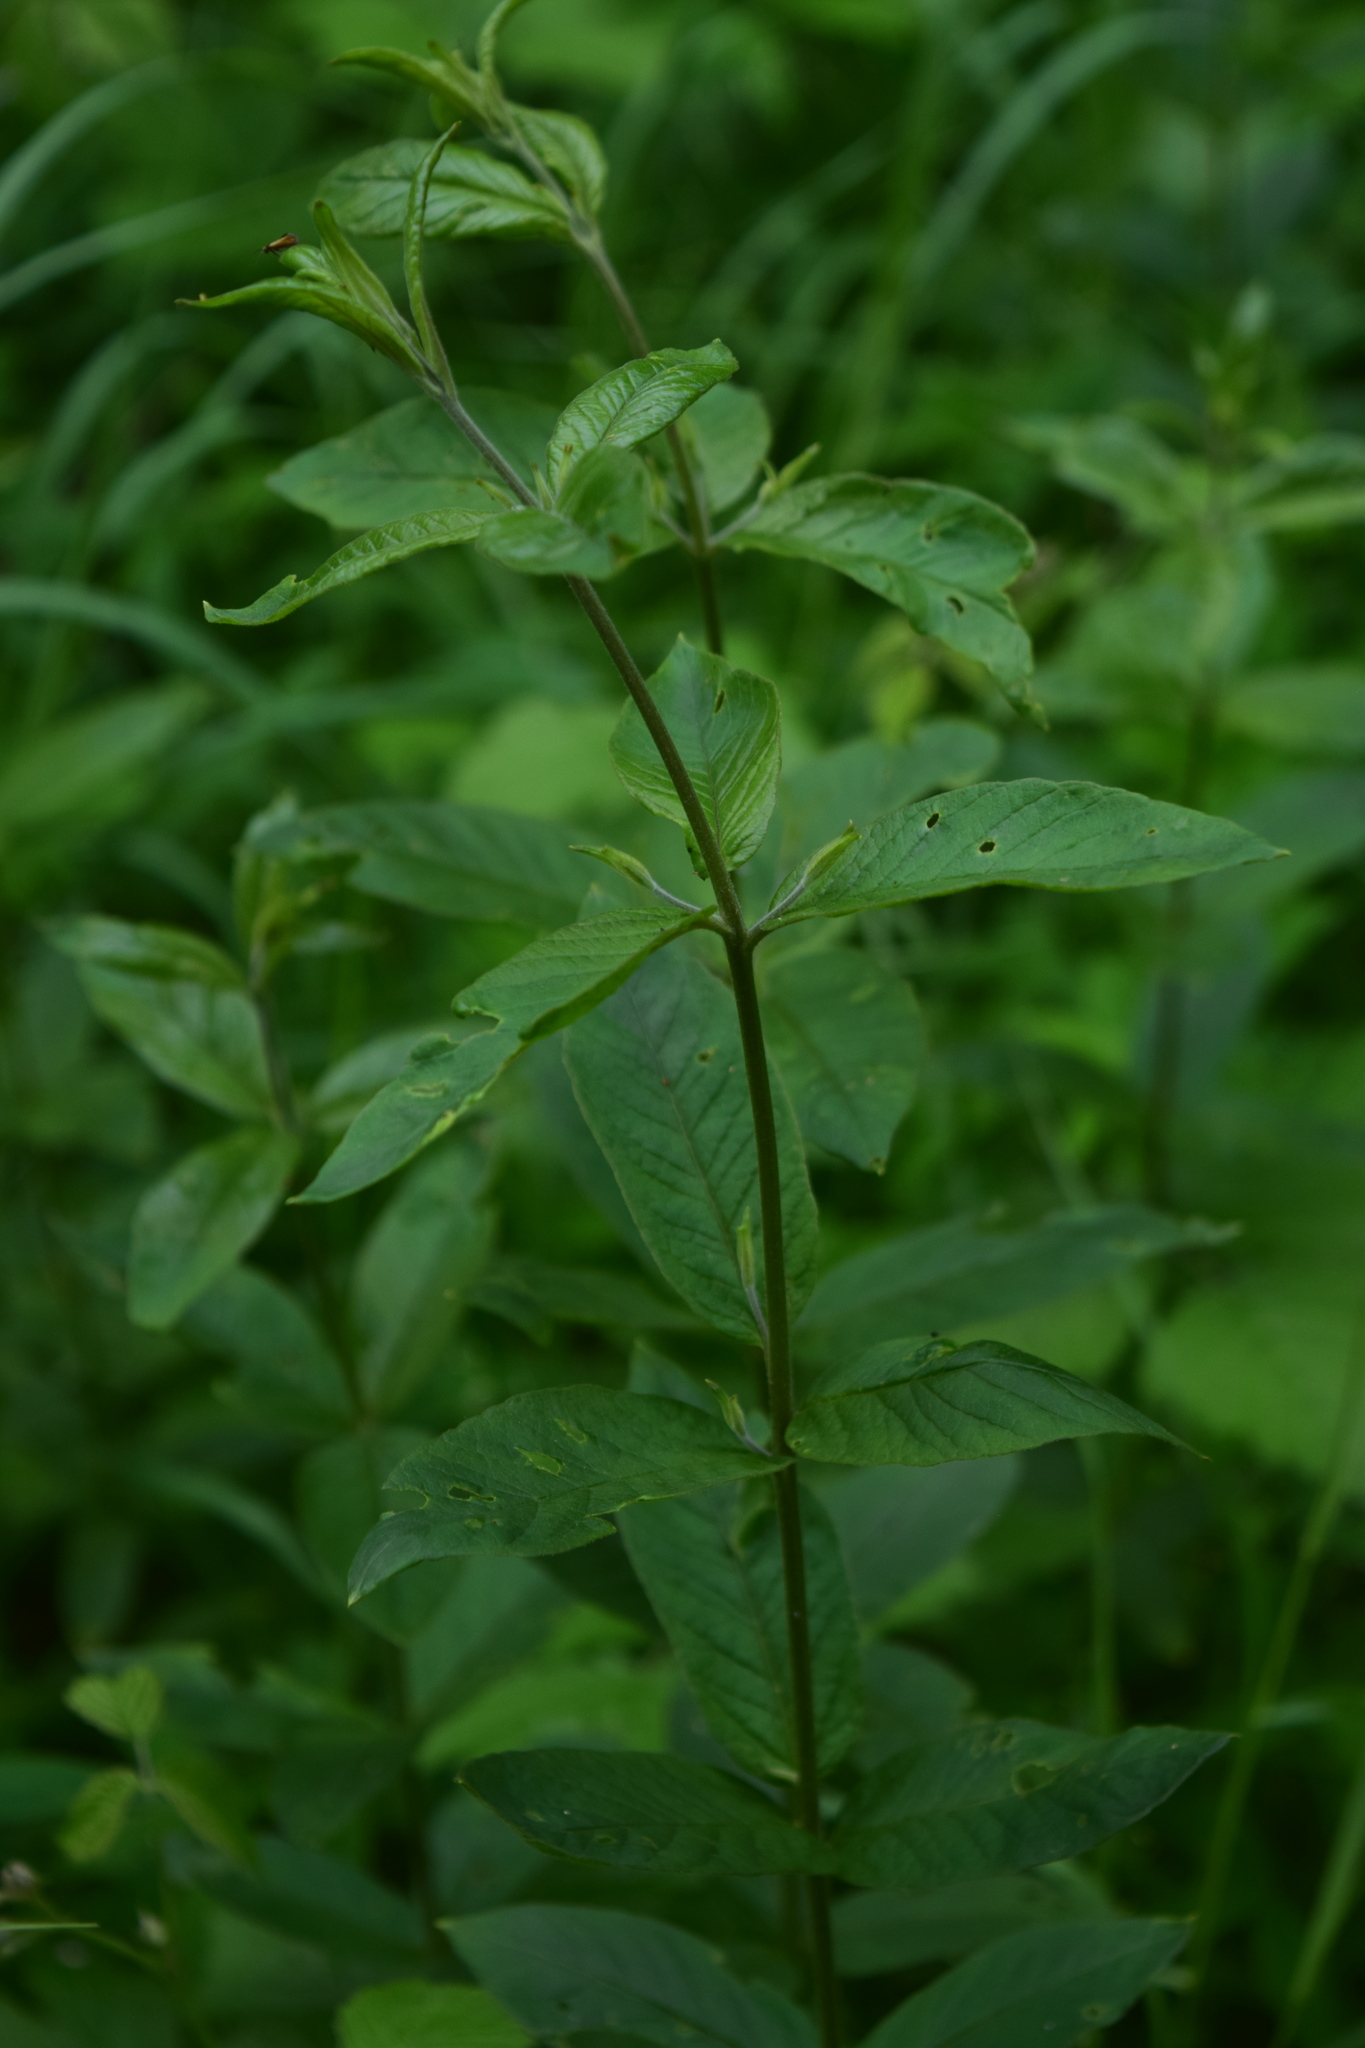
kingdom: Plantae
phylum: Tracheophyta
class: Magnoliopsida
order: Ericales
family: Primulaceae
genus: Lysimachia
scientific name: Lysimachia vulgaris
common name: Yellow loosestrife
